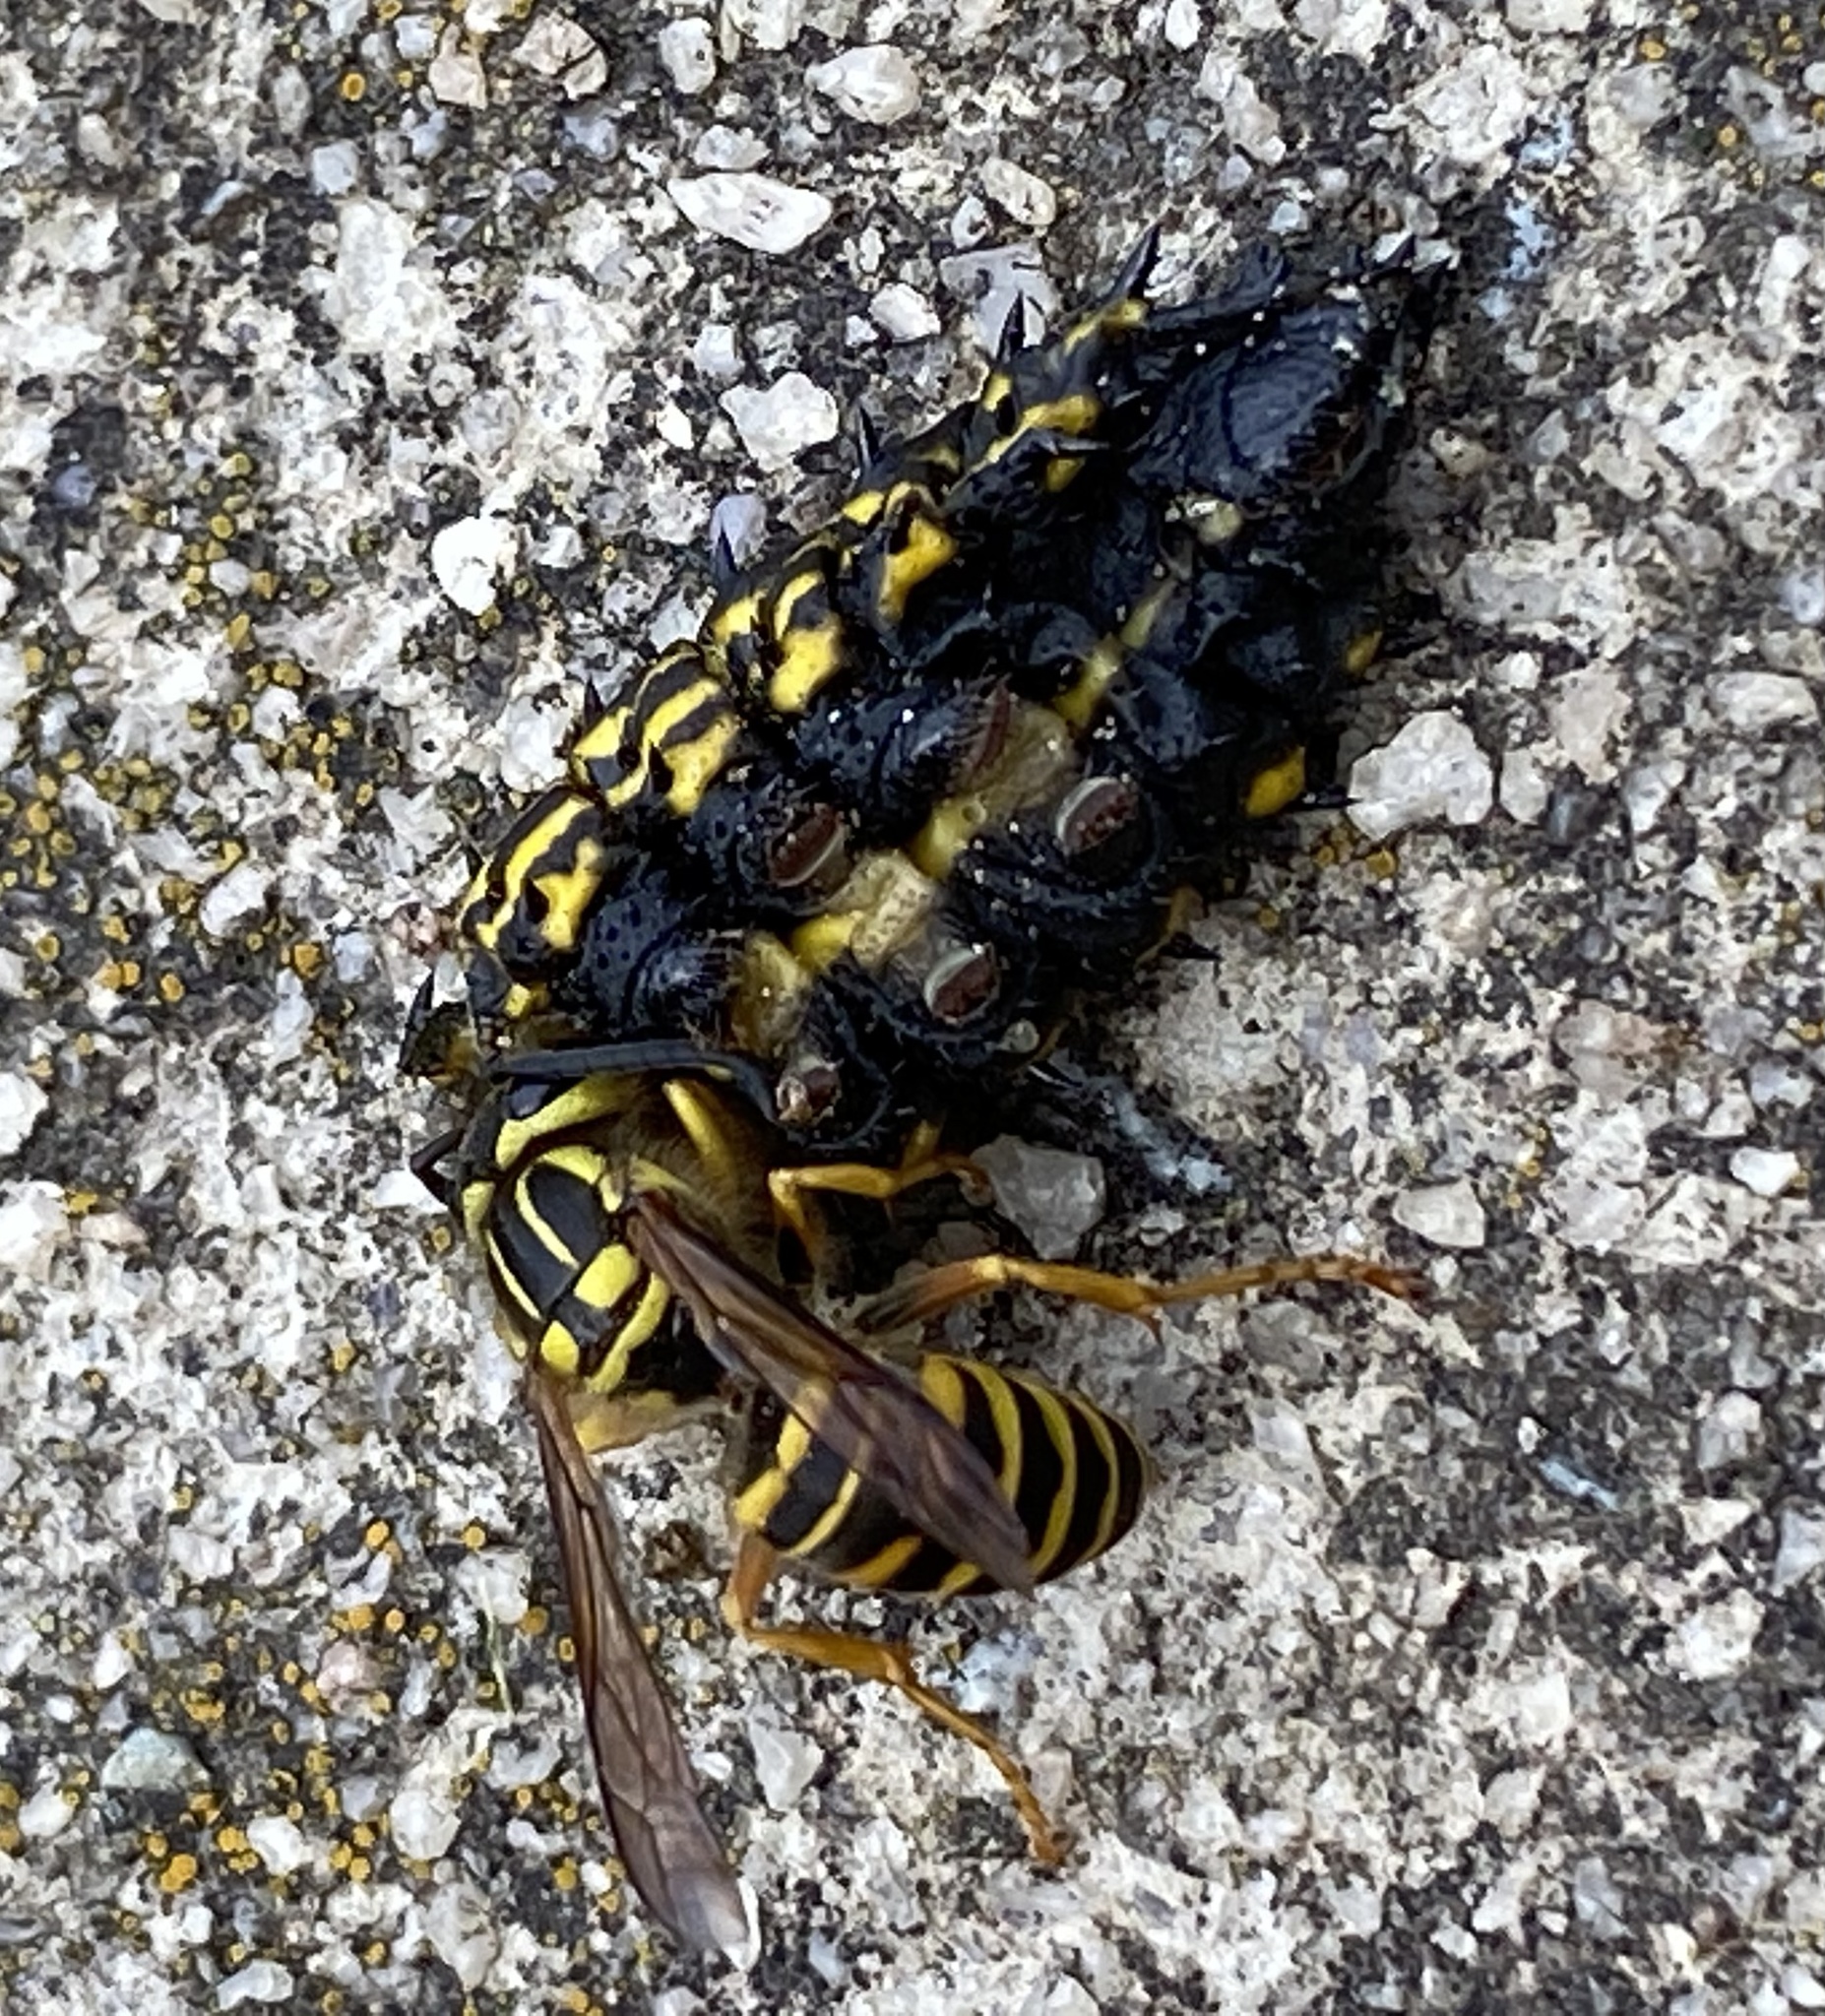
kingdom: Animalia
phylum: Arthropoda
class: Insecta
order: Hymenoptera
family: Vespidae
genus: Vespula
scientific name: Vespula squamosa
